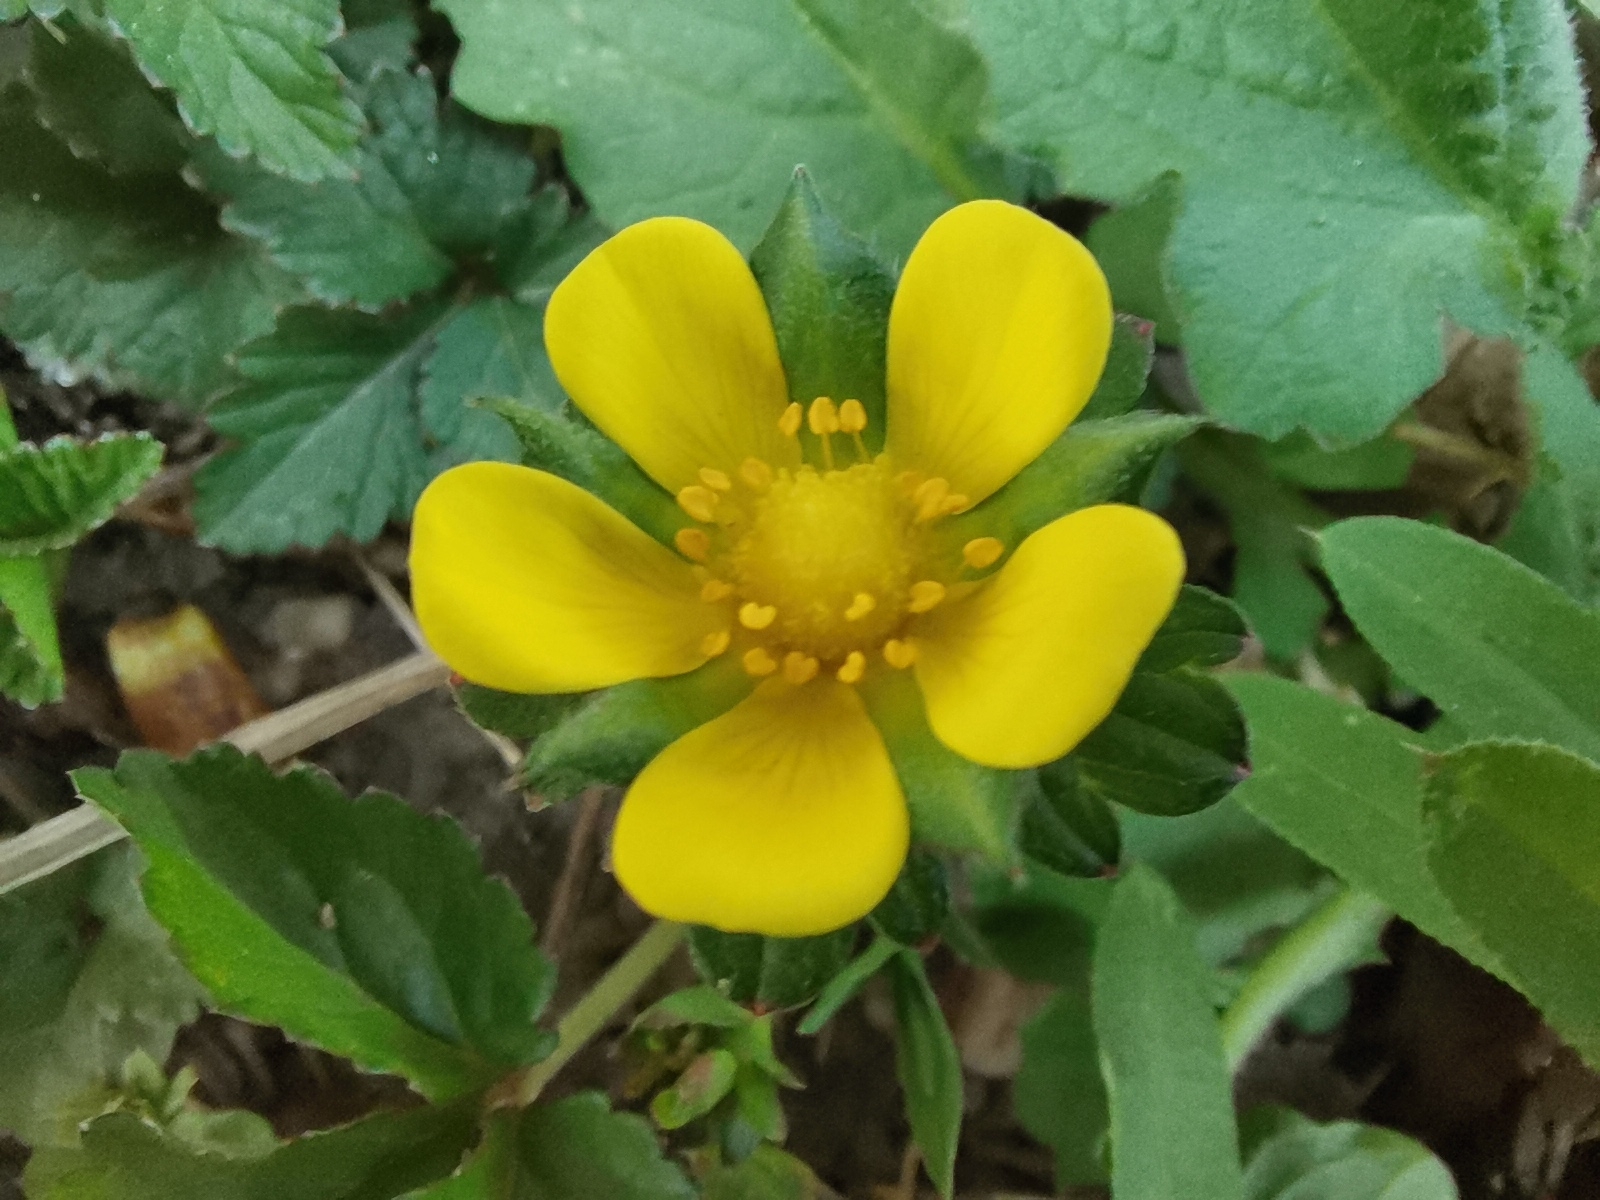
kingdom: Plantae
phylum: Tracheophyta
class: Magnoliopsida
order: Rosales
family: Rosaceae
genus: Potentilla
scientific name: Potentilla indica
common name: Yellow-flowered strawberry
